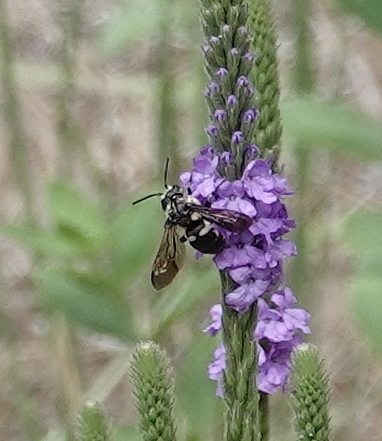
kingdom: Animalia
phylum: Arthropoda
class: Insecta
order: Hymenoptera
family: Apidae
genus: Brachymelecta
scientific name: Brachymelecta californica
